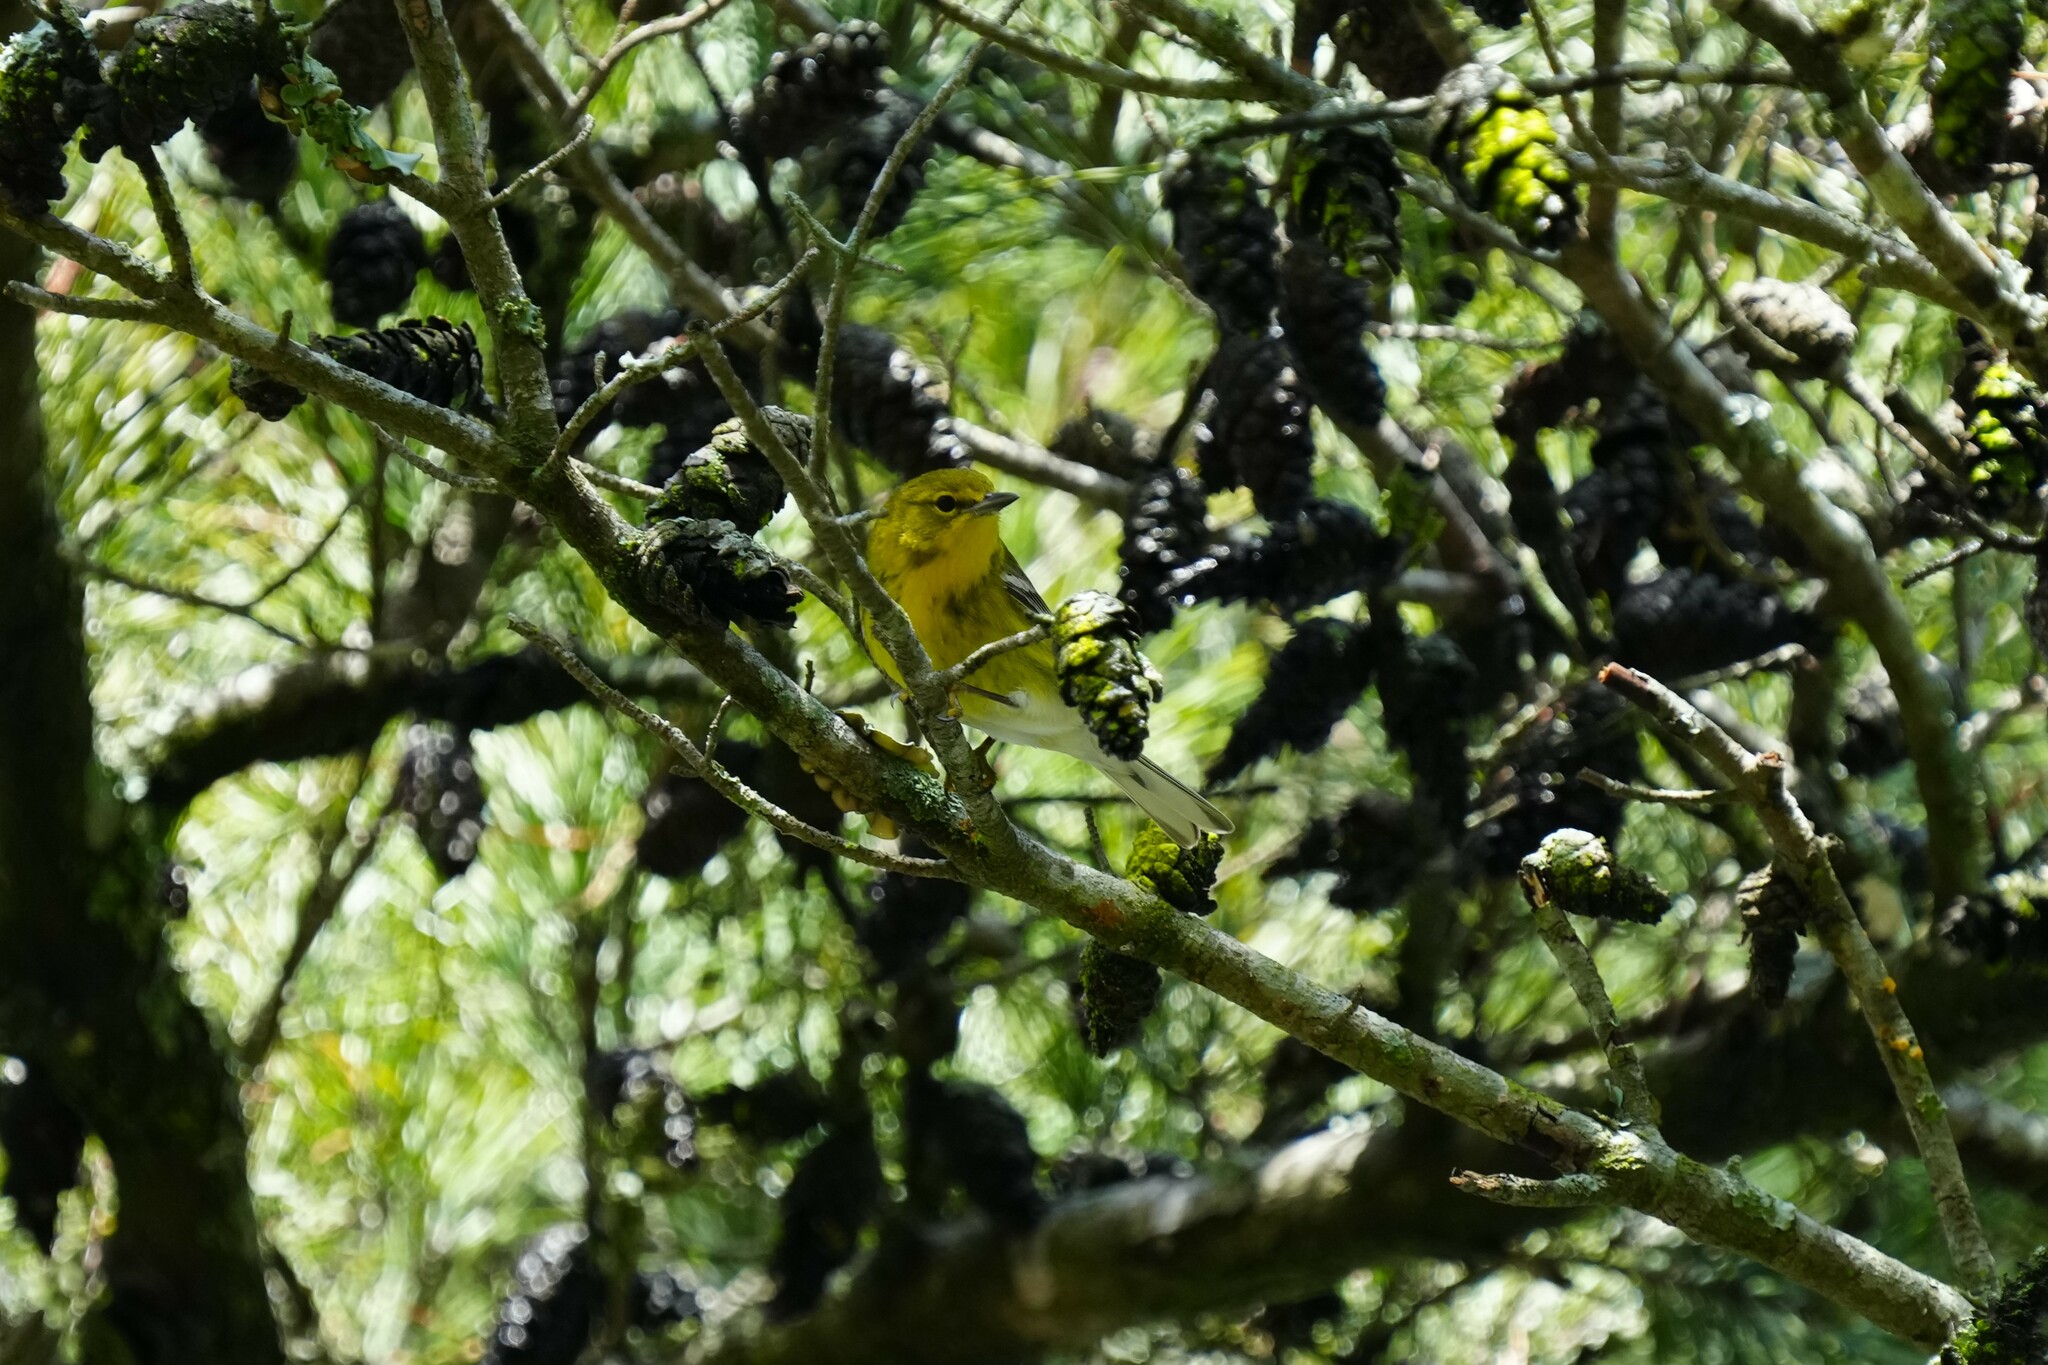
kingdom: Animalia
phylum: Chordata
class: Aves
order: Passeriformes
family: Parulidae
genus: Setophaga
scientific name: Setophaga pinus
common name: Pine warbler
